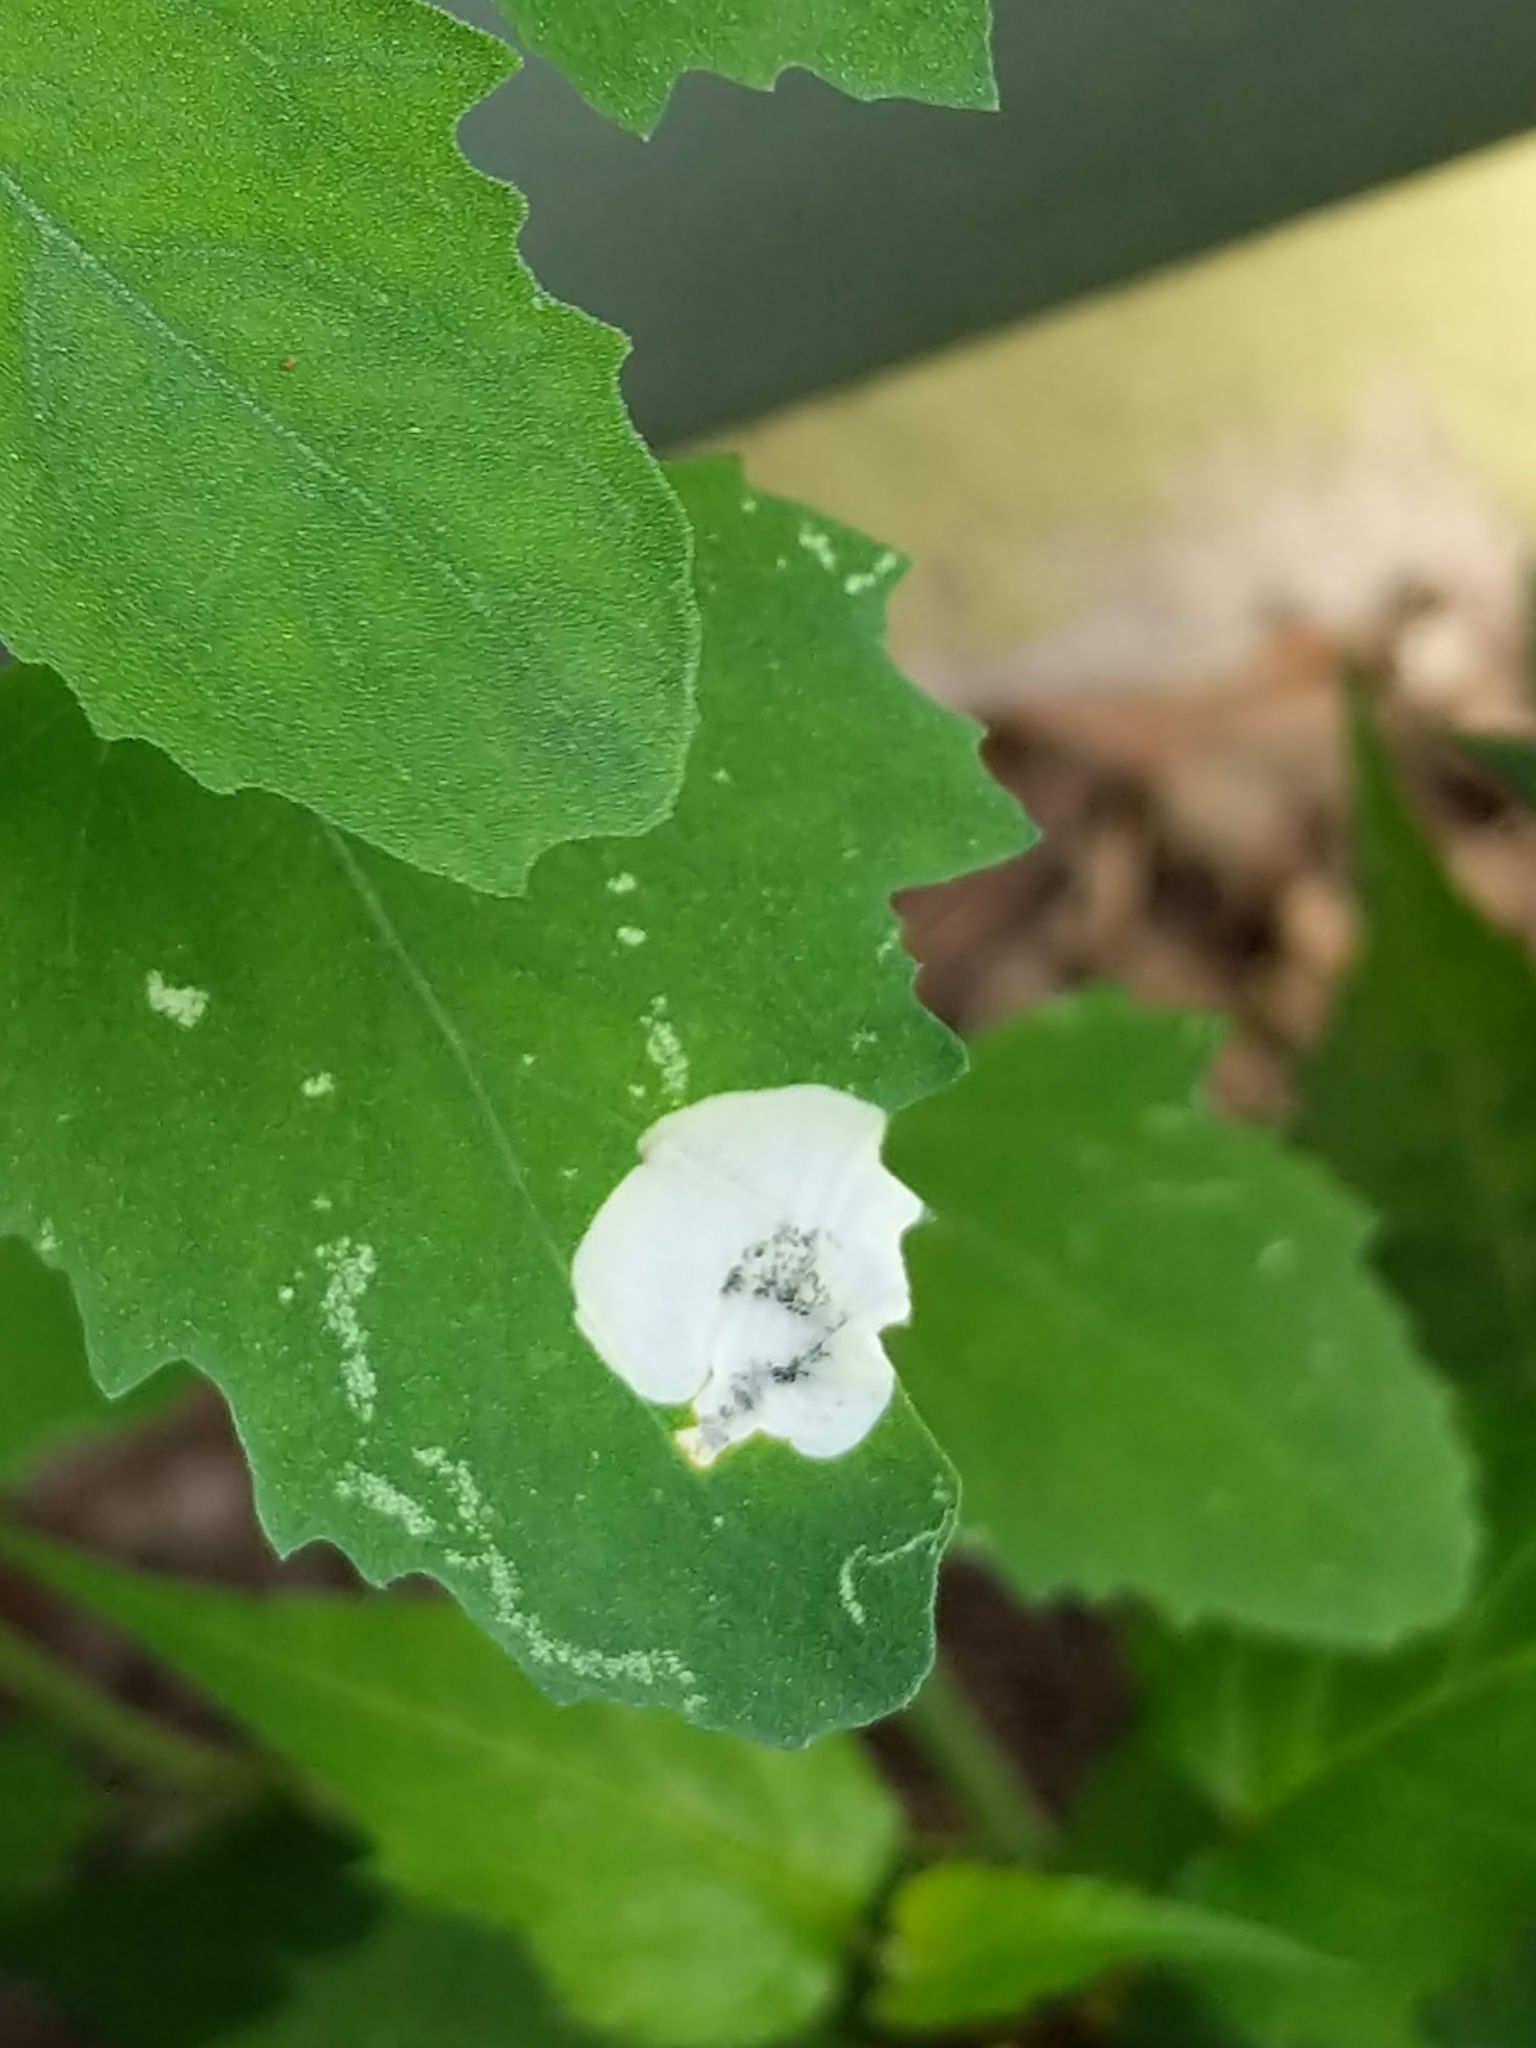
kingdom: Animalia
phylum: Arthropoda
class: Insecta
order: Lepidoptera
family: Gelechiidae
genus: Chrysoesthia
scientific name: Chrysoesthia sexguttella
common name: Moth
